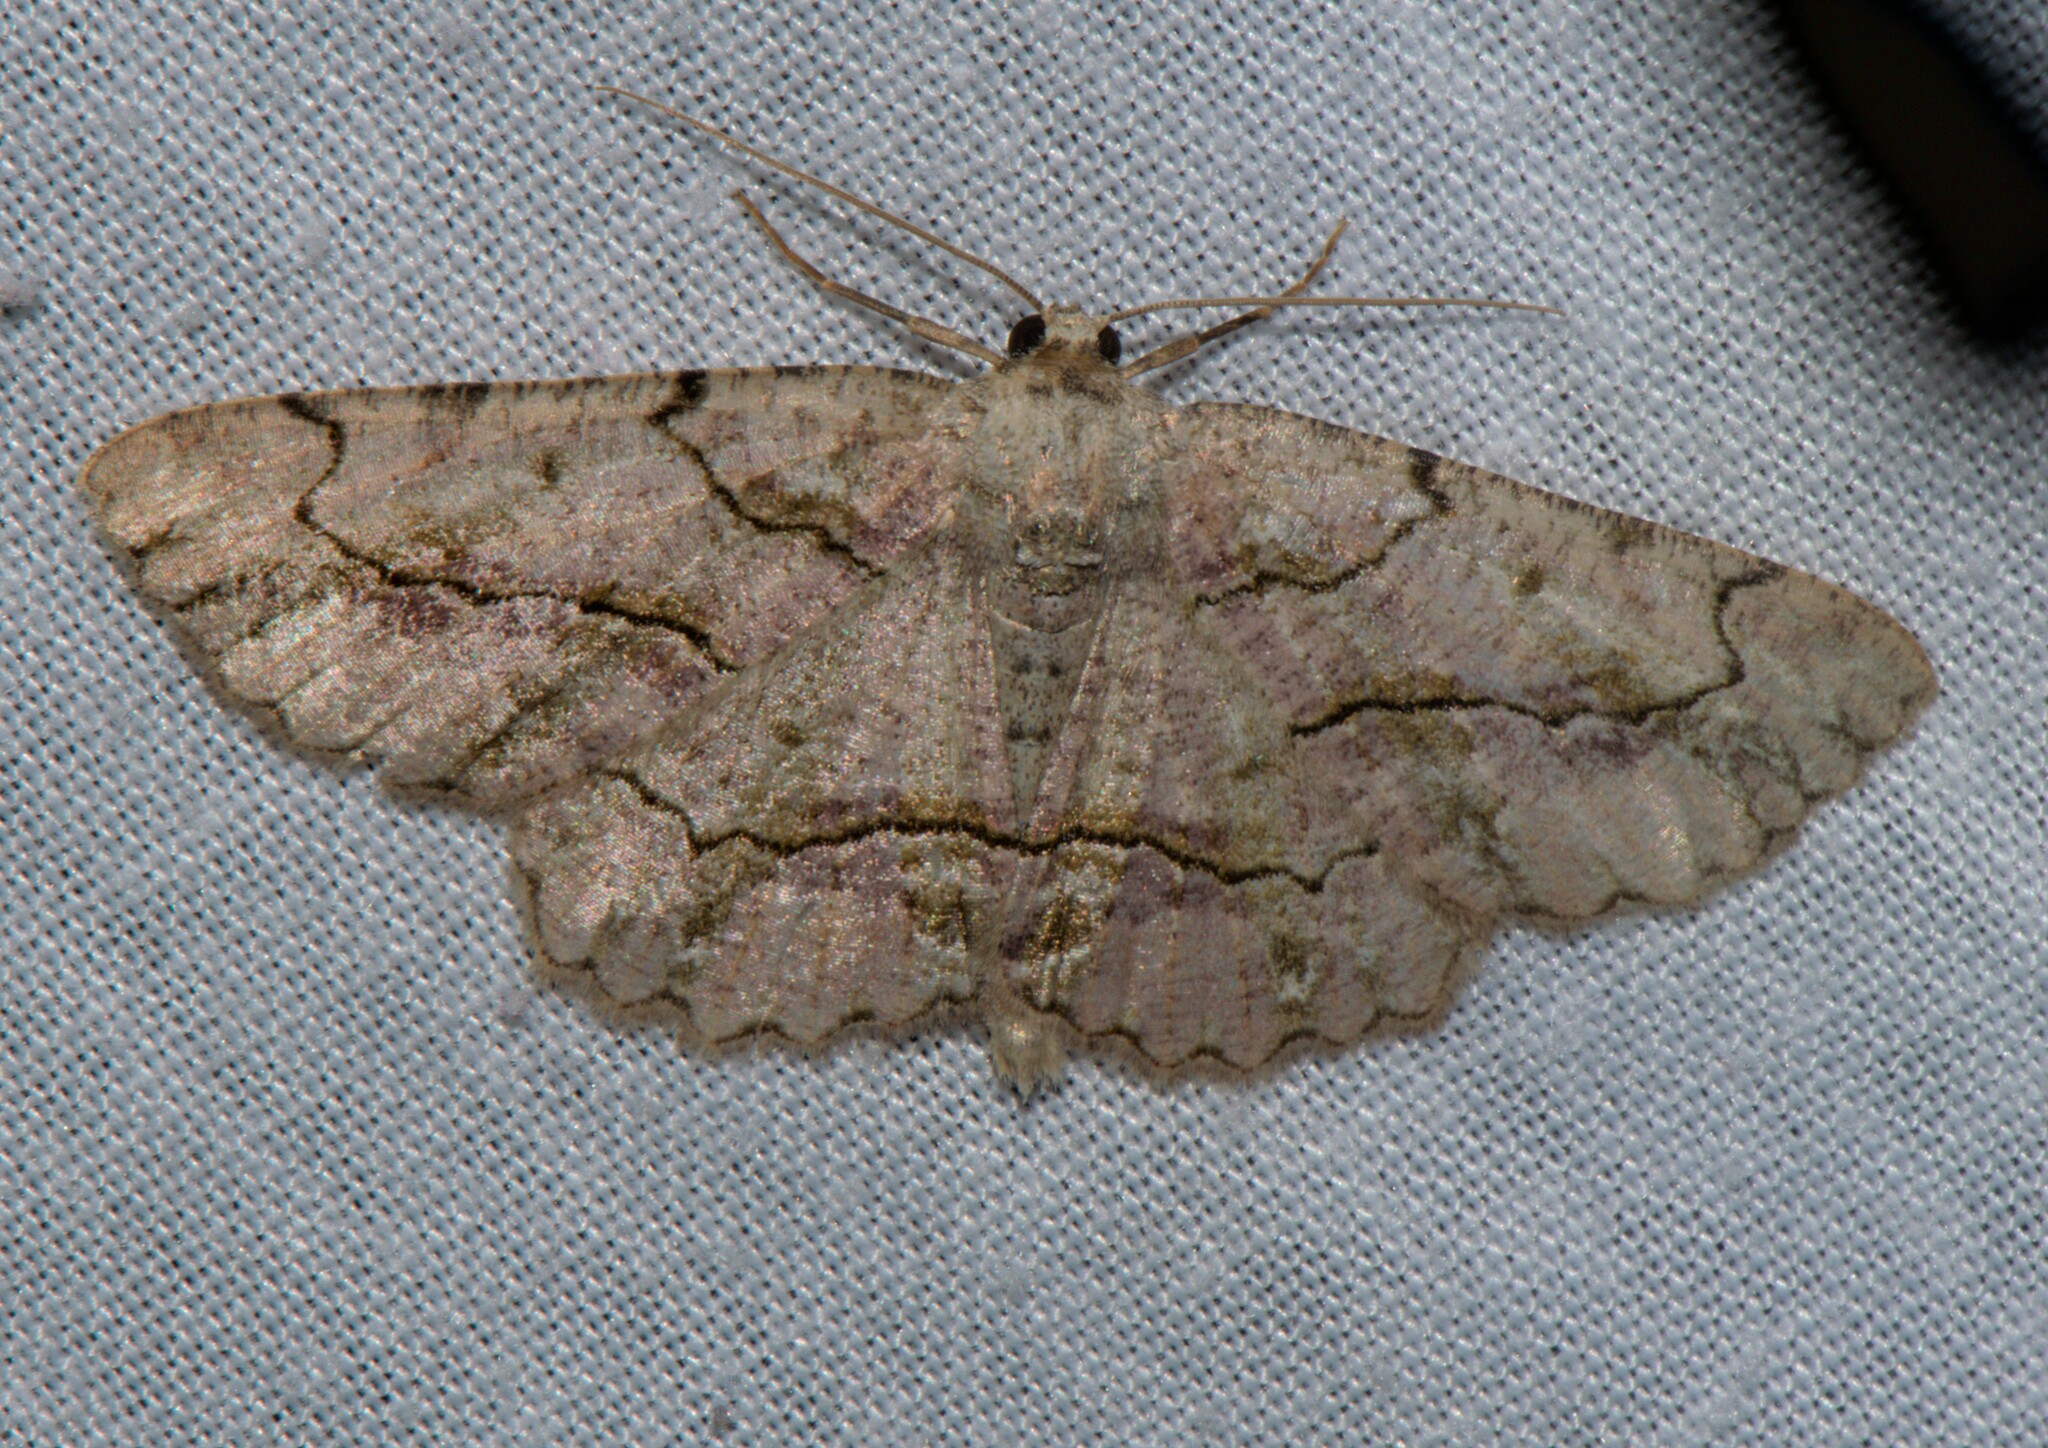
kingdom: Animalia
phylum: Arthropoda
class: Insecta
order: Lepidoptera
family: Geometridae
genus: Hirasa
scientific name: Hirasa scripturaria
